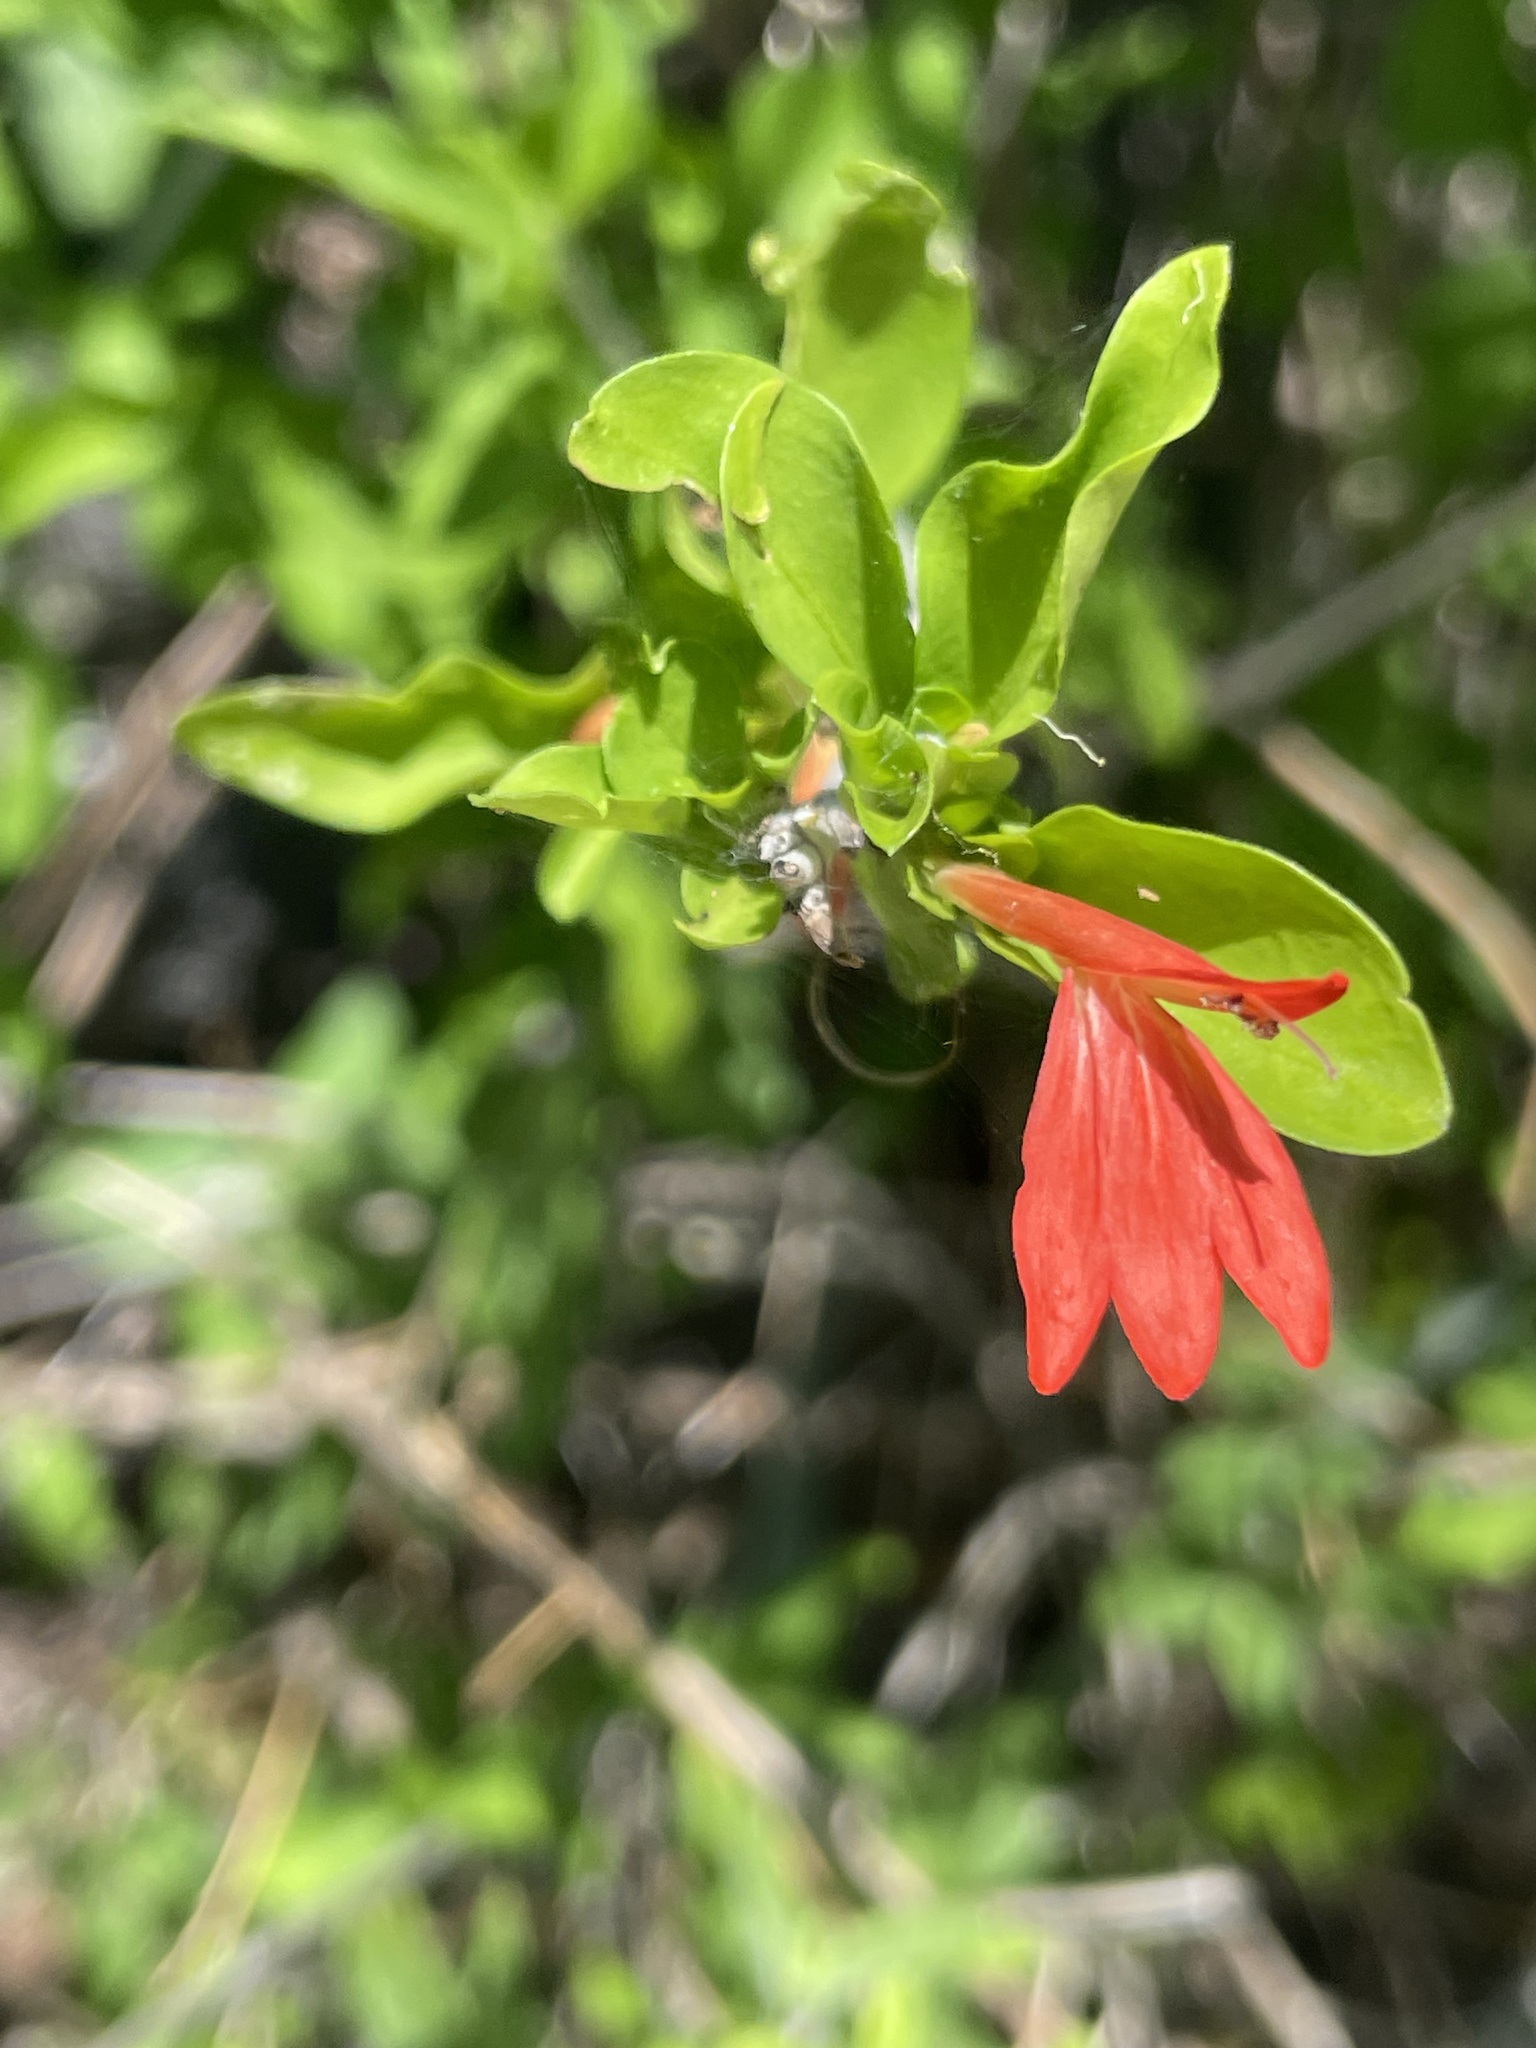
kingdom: Plantae
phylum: Tracheophyta
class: Magnoliopsida
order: Lamiales
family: Acanthaceae
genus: Justicia
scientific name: Justicia palmeri
